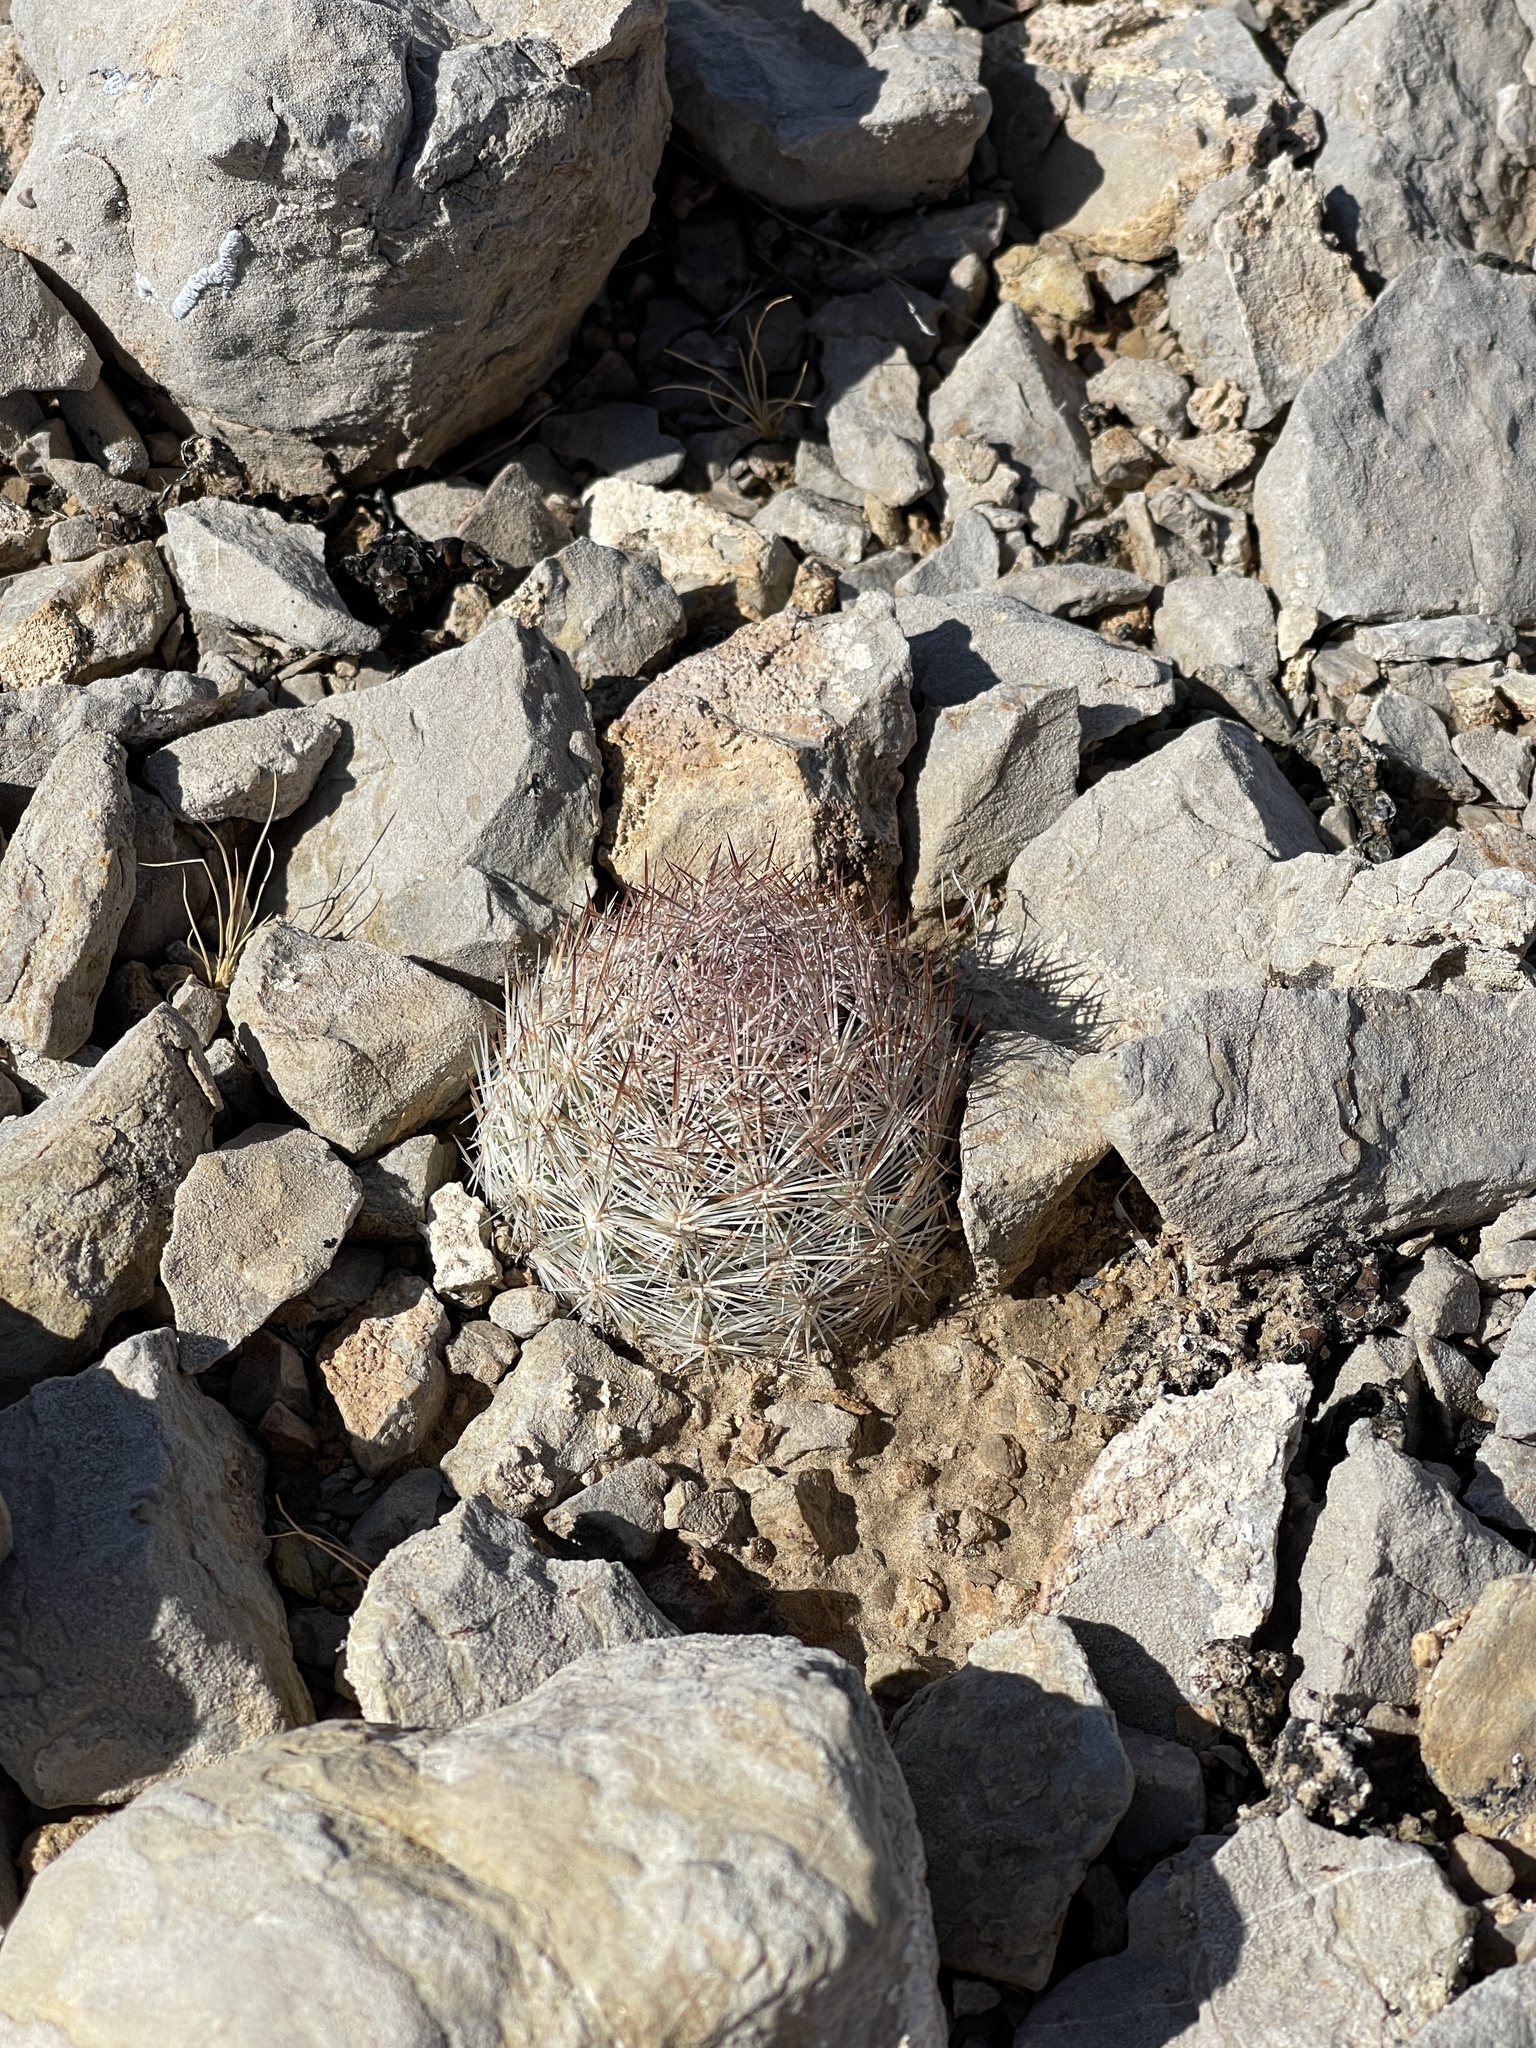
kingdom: Plantae
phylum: Tracheophyta
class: Magnoliopsida
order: Caryophyllales
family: Cactaceae
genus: Pelecyphora
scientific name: Pelecyphora dasyacantha
